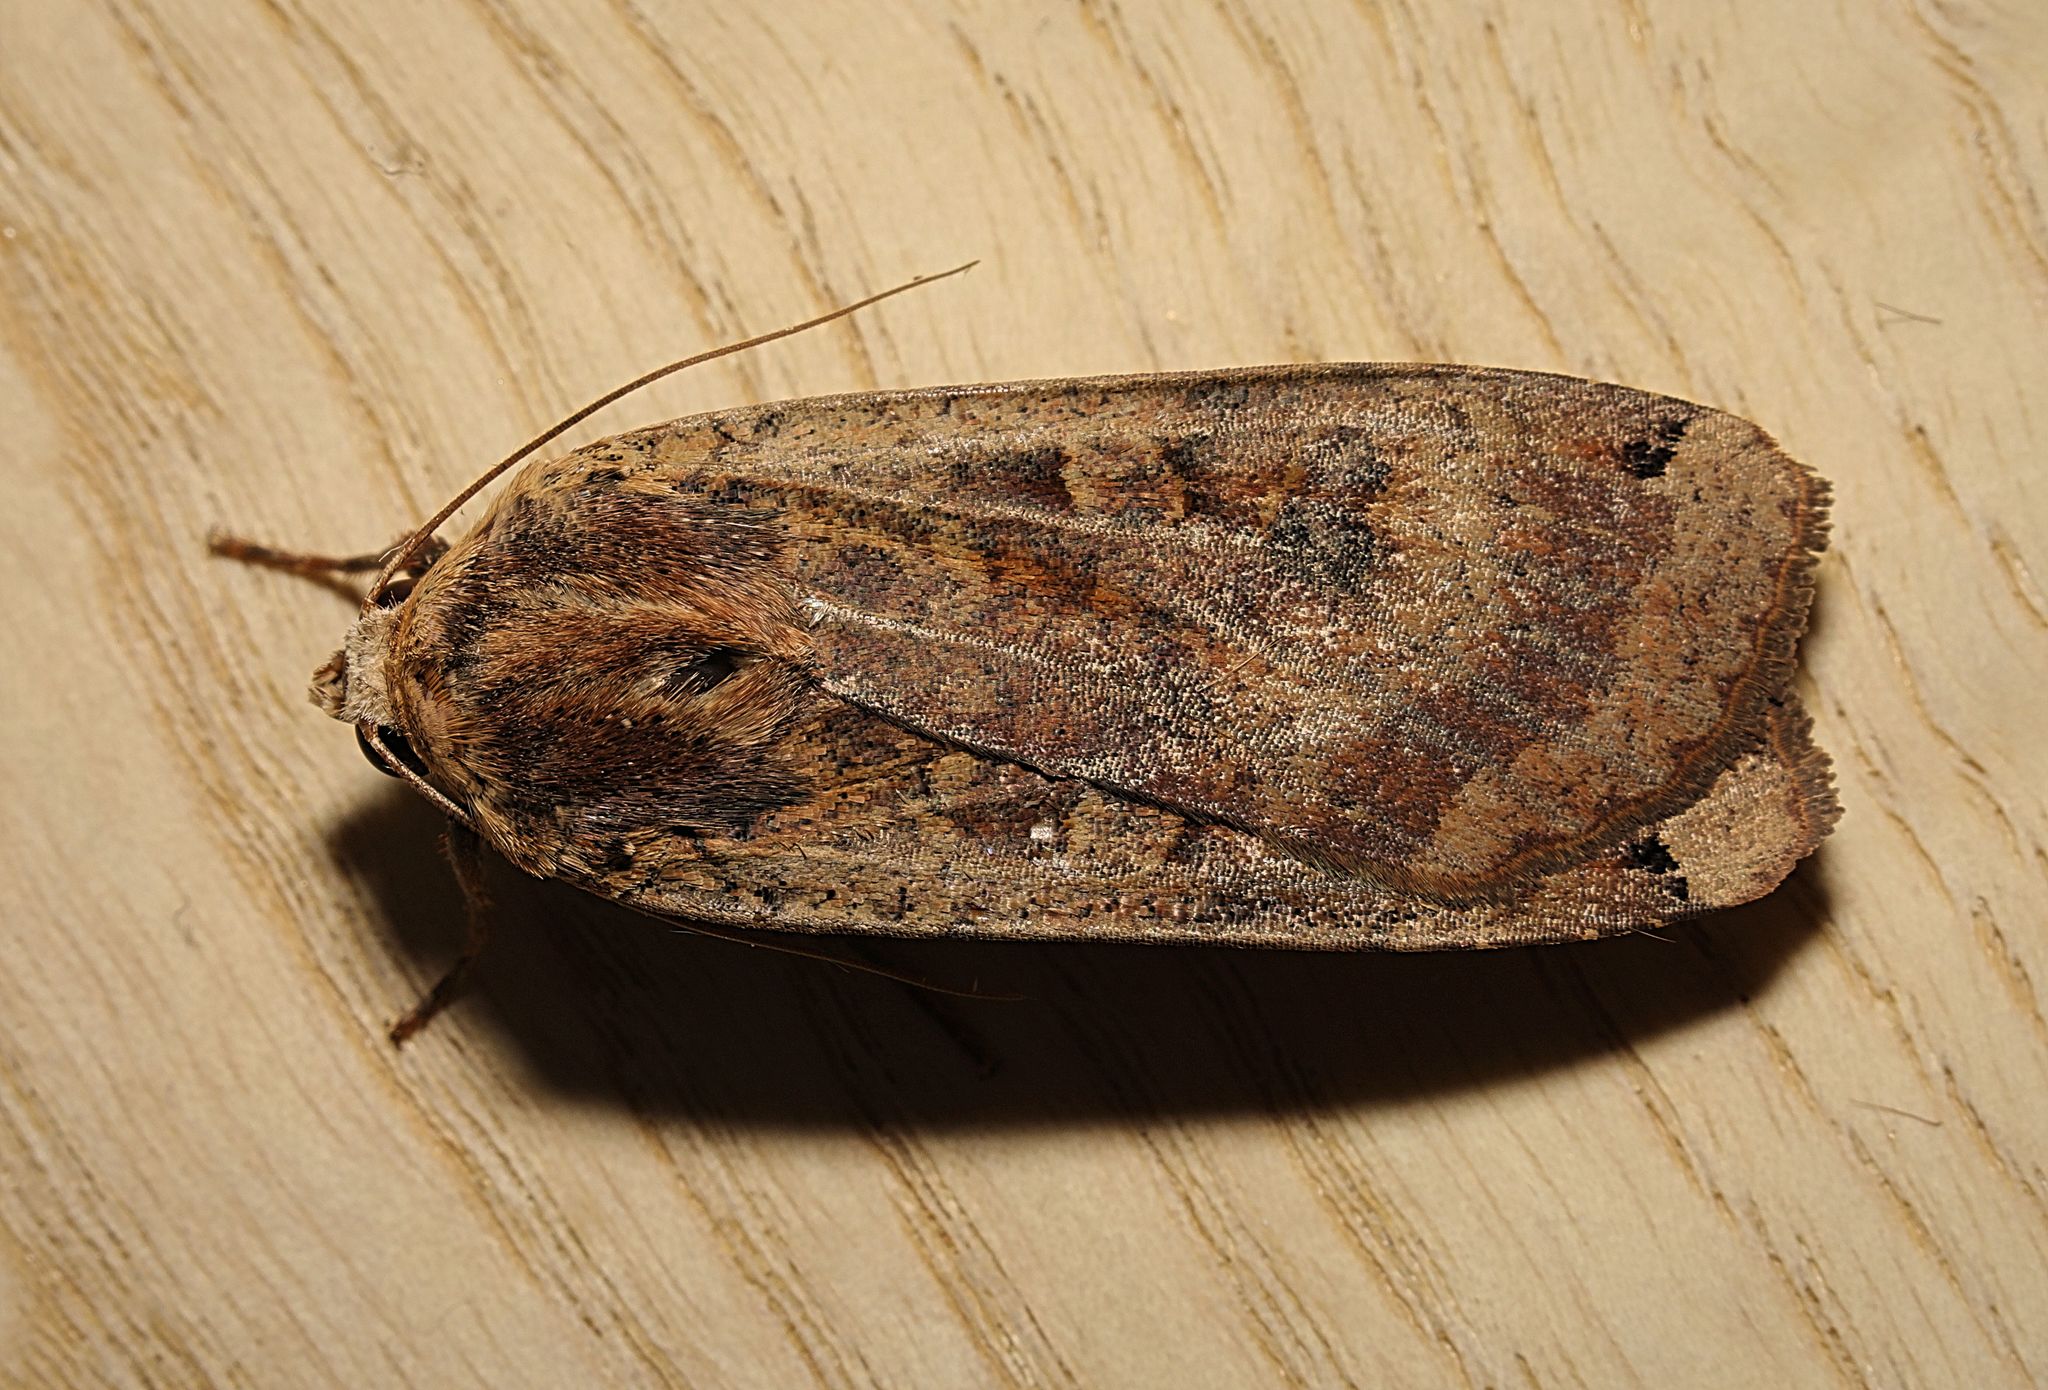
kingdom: Animalia
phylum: Arthropoda
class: Insecta
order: Lepidoptera
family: Noctuidae
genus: Noctua
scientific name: Noctua pronuba
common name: Large yellow underwing
